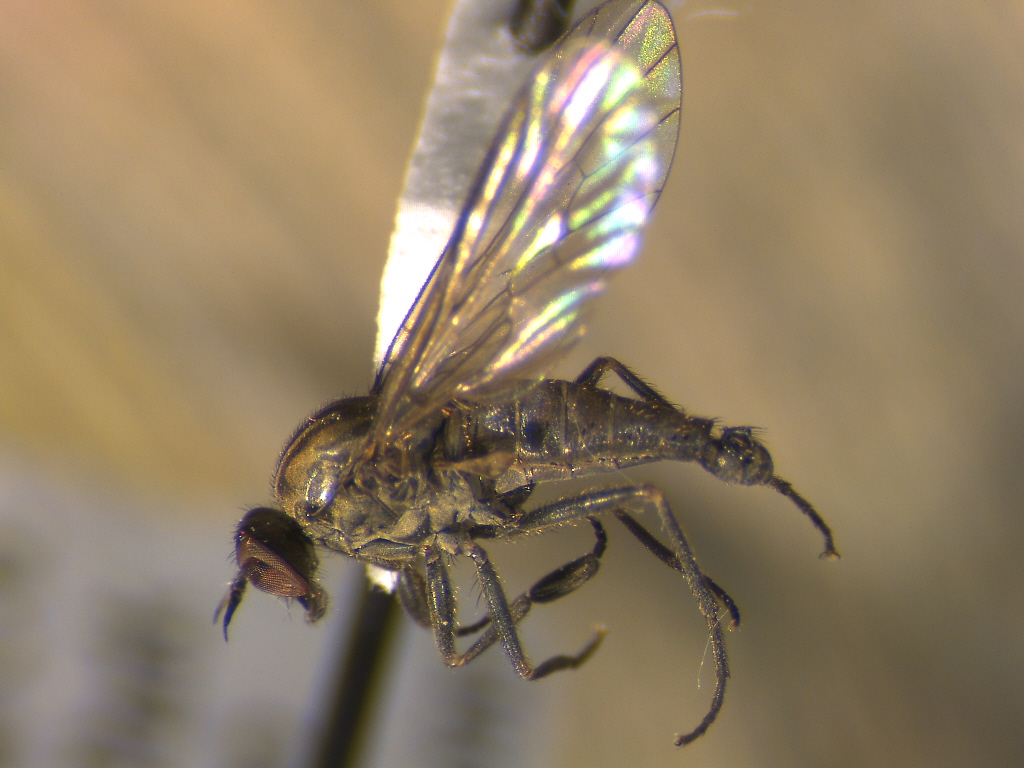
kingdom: Animalia
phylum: Arthropoda
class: Insecta
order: Diptera
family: Empididae
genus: Hilara
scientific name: Hilara trivittata
